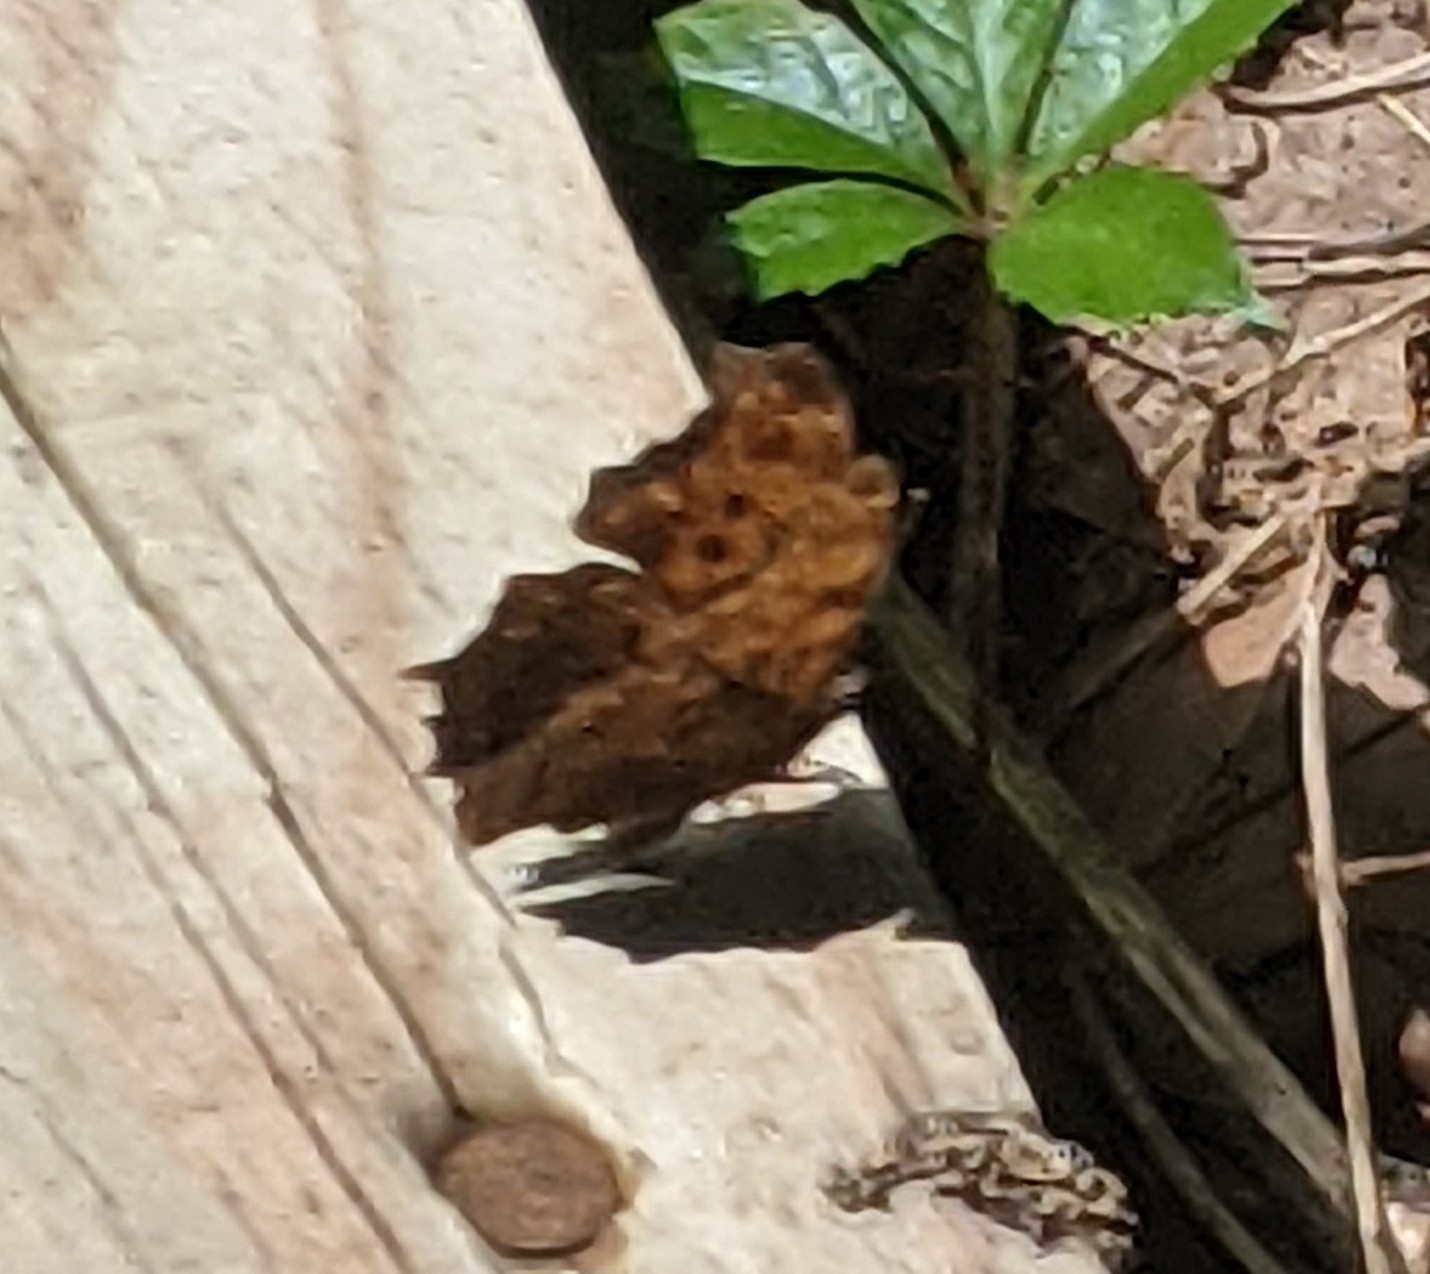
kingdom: Animalia
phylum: Arthropoda
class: Insecta
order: Lepidoptera
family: Nymphalidae
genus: Polygonia
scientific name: Polygonia comma
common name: Eastern comma
